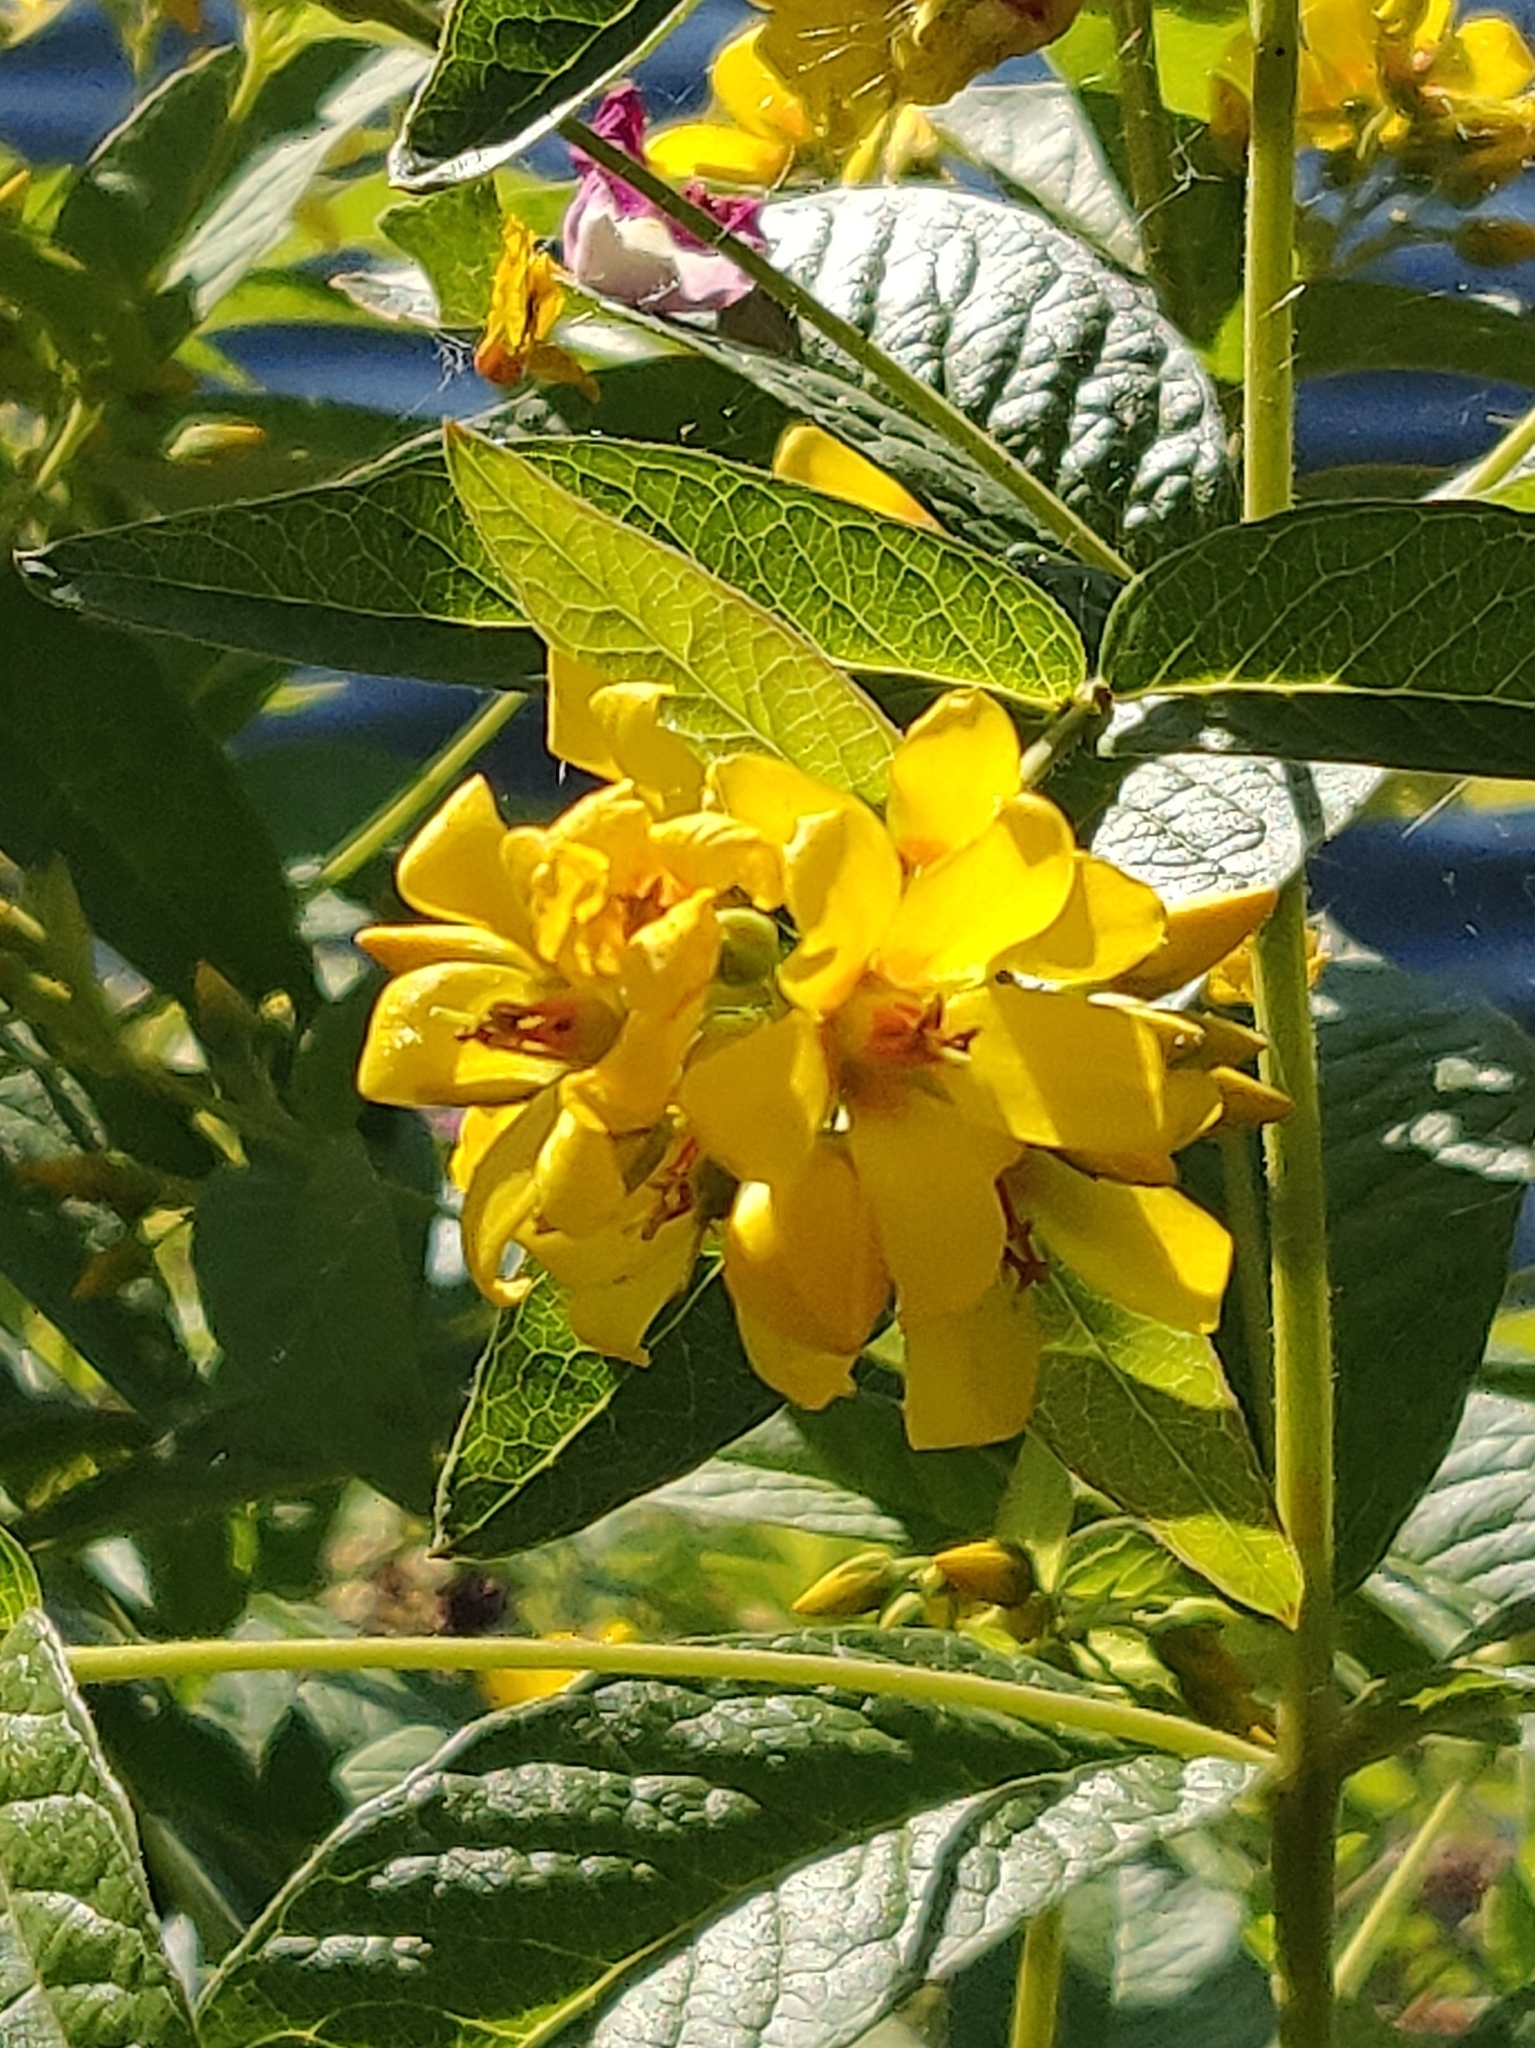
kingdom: Plantae
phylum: Tracheophyta
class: Magnoliopsida
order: Ericales
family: Primulaceae
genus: Lysimachia
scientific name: Lysimachia vulgaris
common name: Yellow loosestrife
